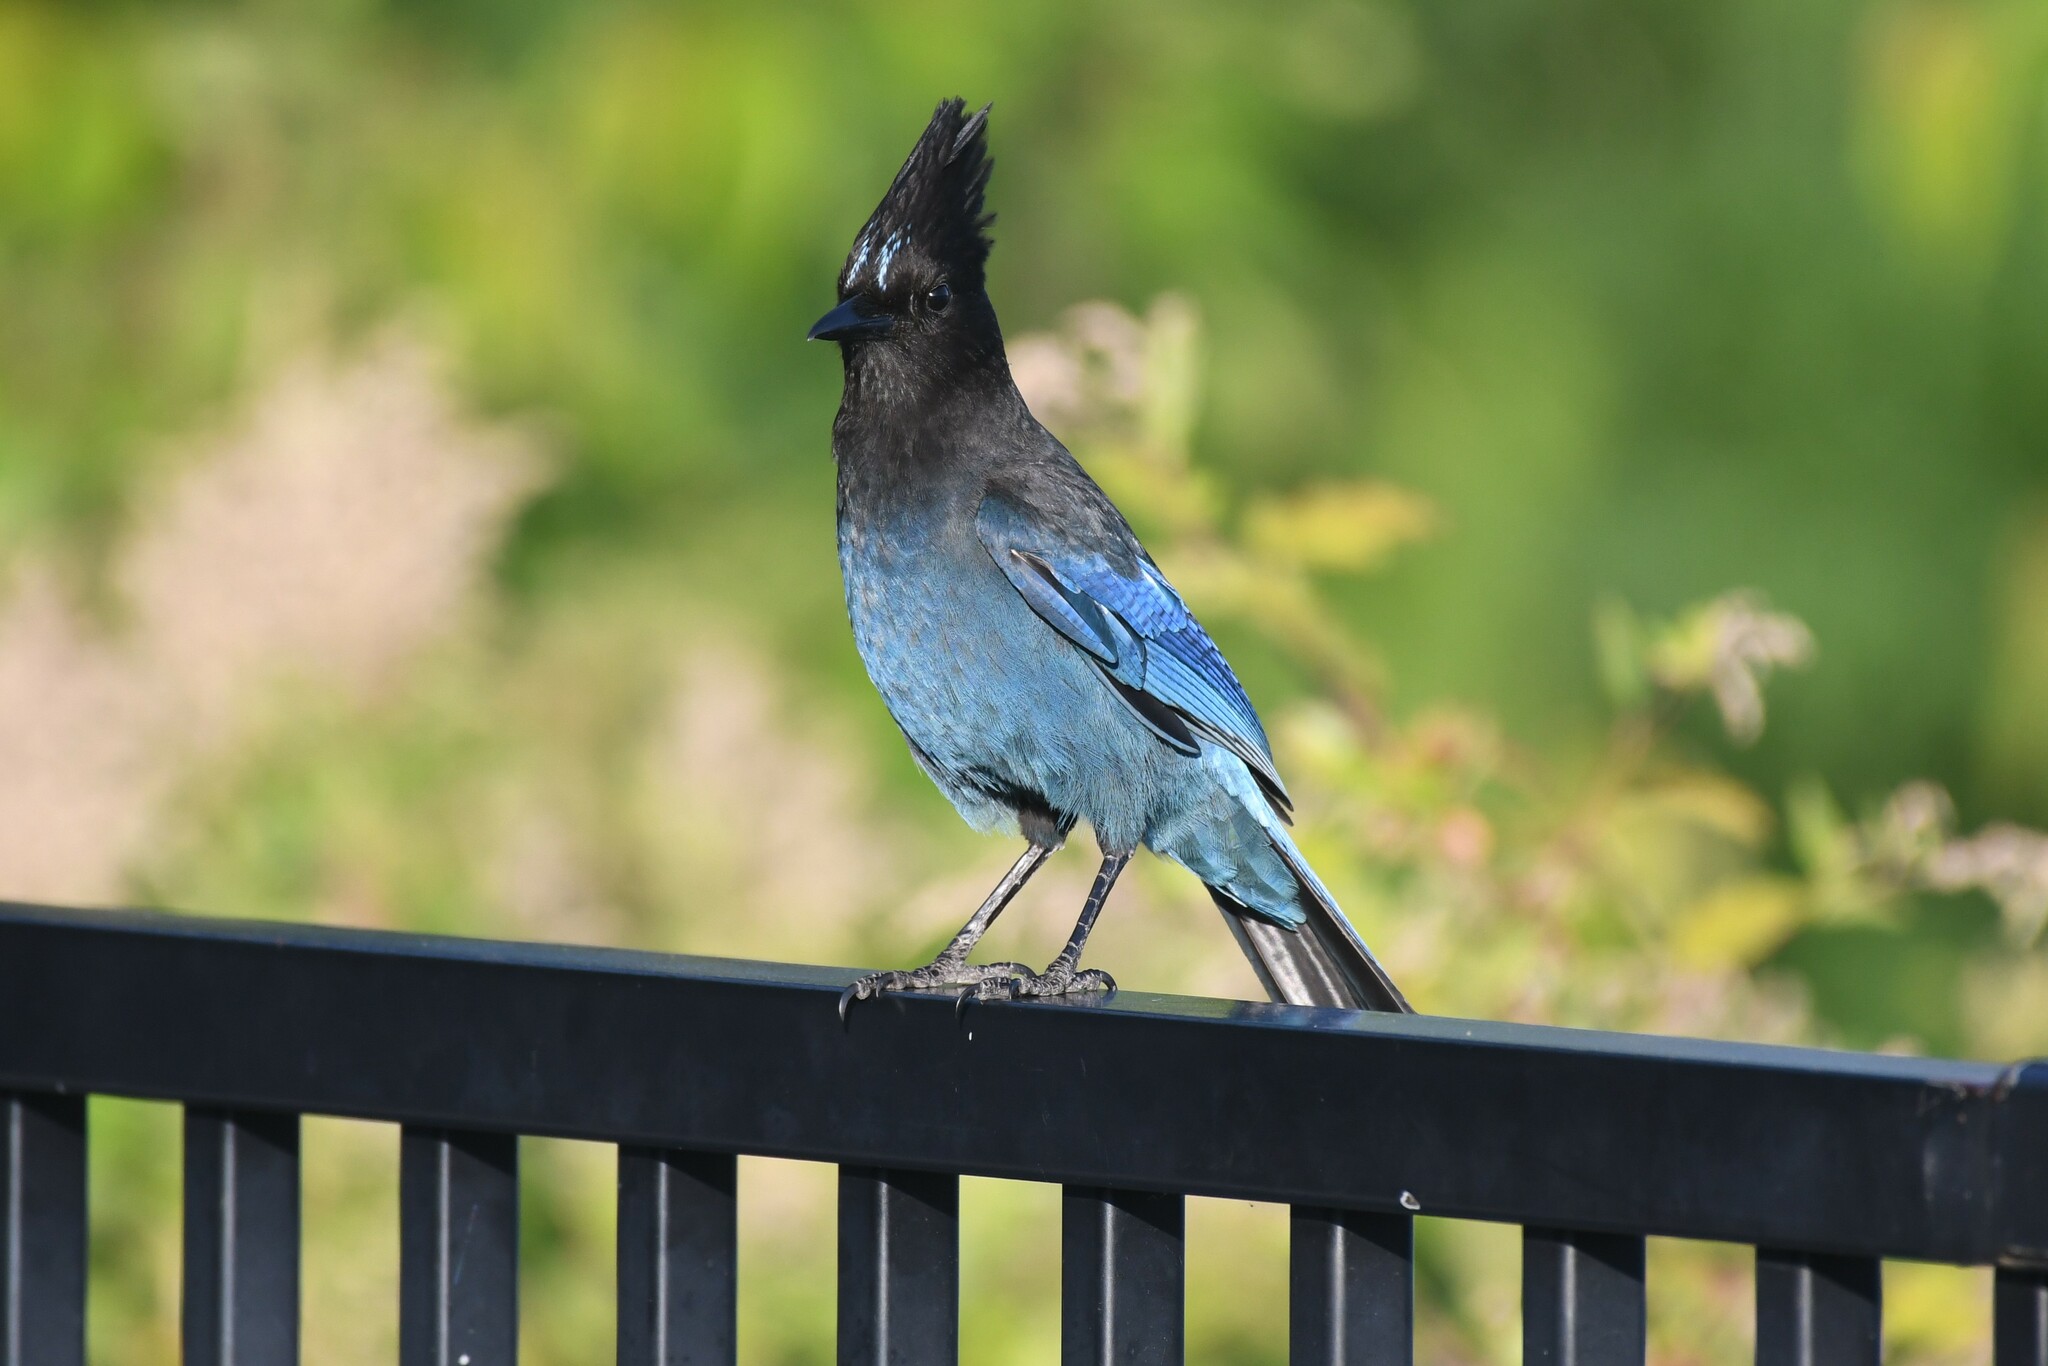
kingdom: Animalia
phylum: Chordata
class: Aves
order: Passeriformes
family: Corvidae
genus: Cyanocitta
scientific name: Cyanocitta stelleri
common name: Steller's jay
